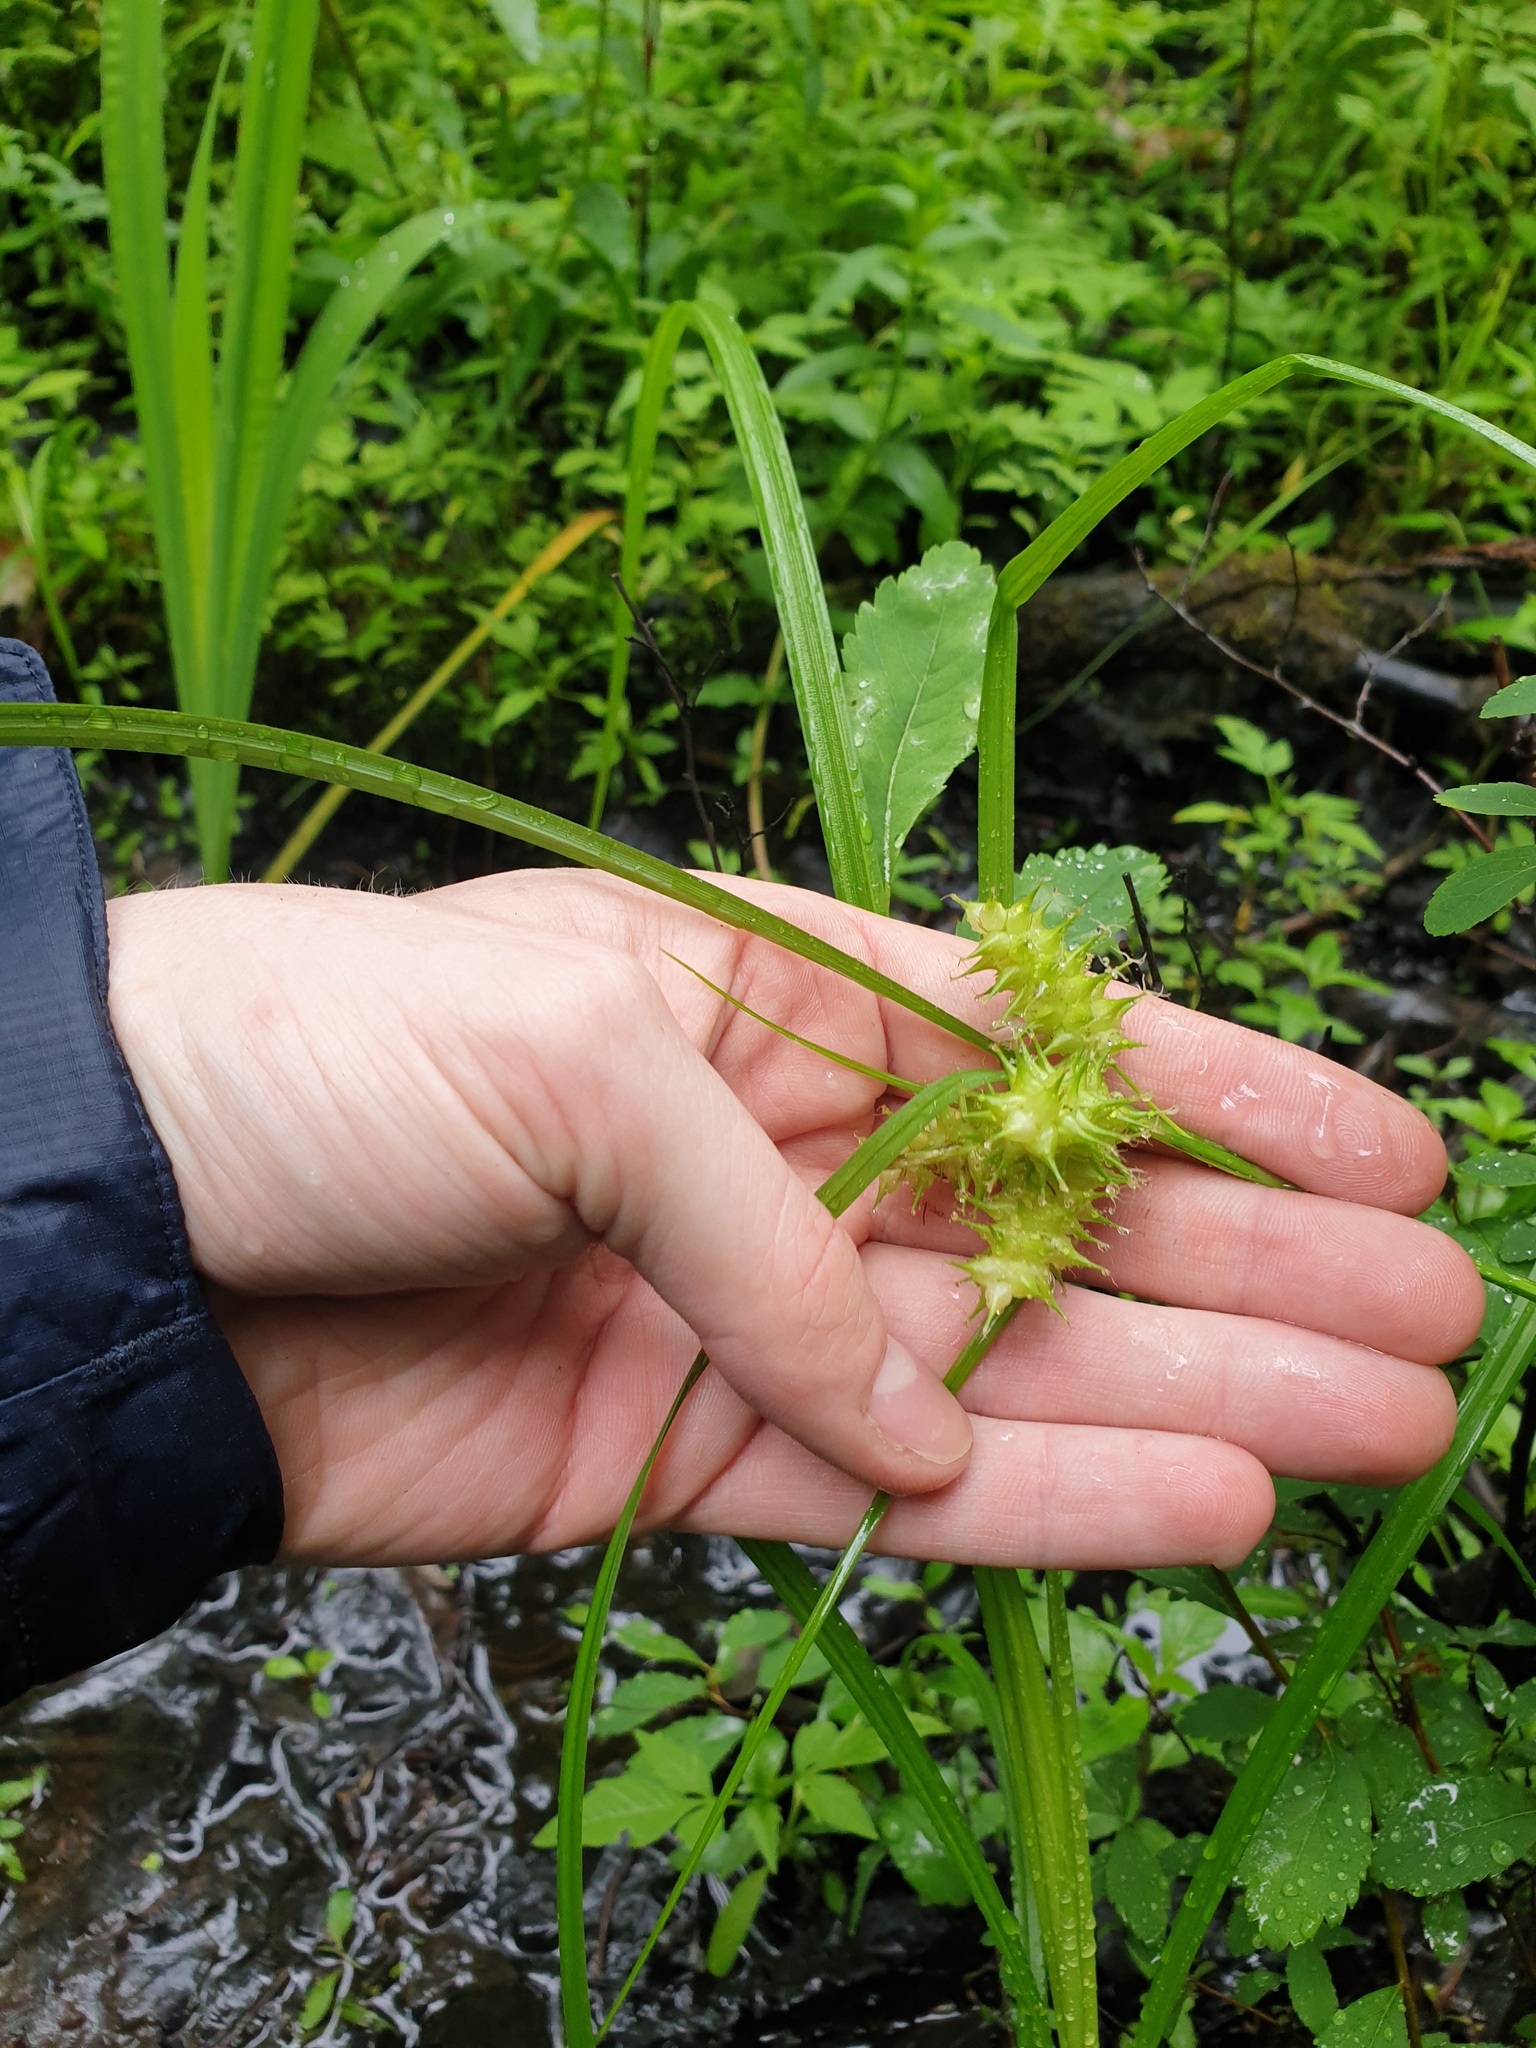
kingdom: Plantae
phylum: Tracheophyta
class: Liliopsida
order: Poales
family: Cyperaceae
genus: Carex
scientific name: Carex retrorsa
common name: Knot-sheath sedge
